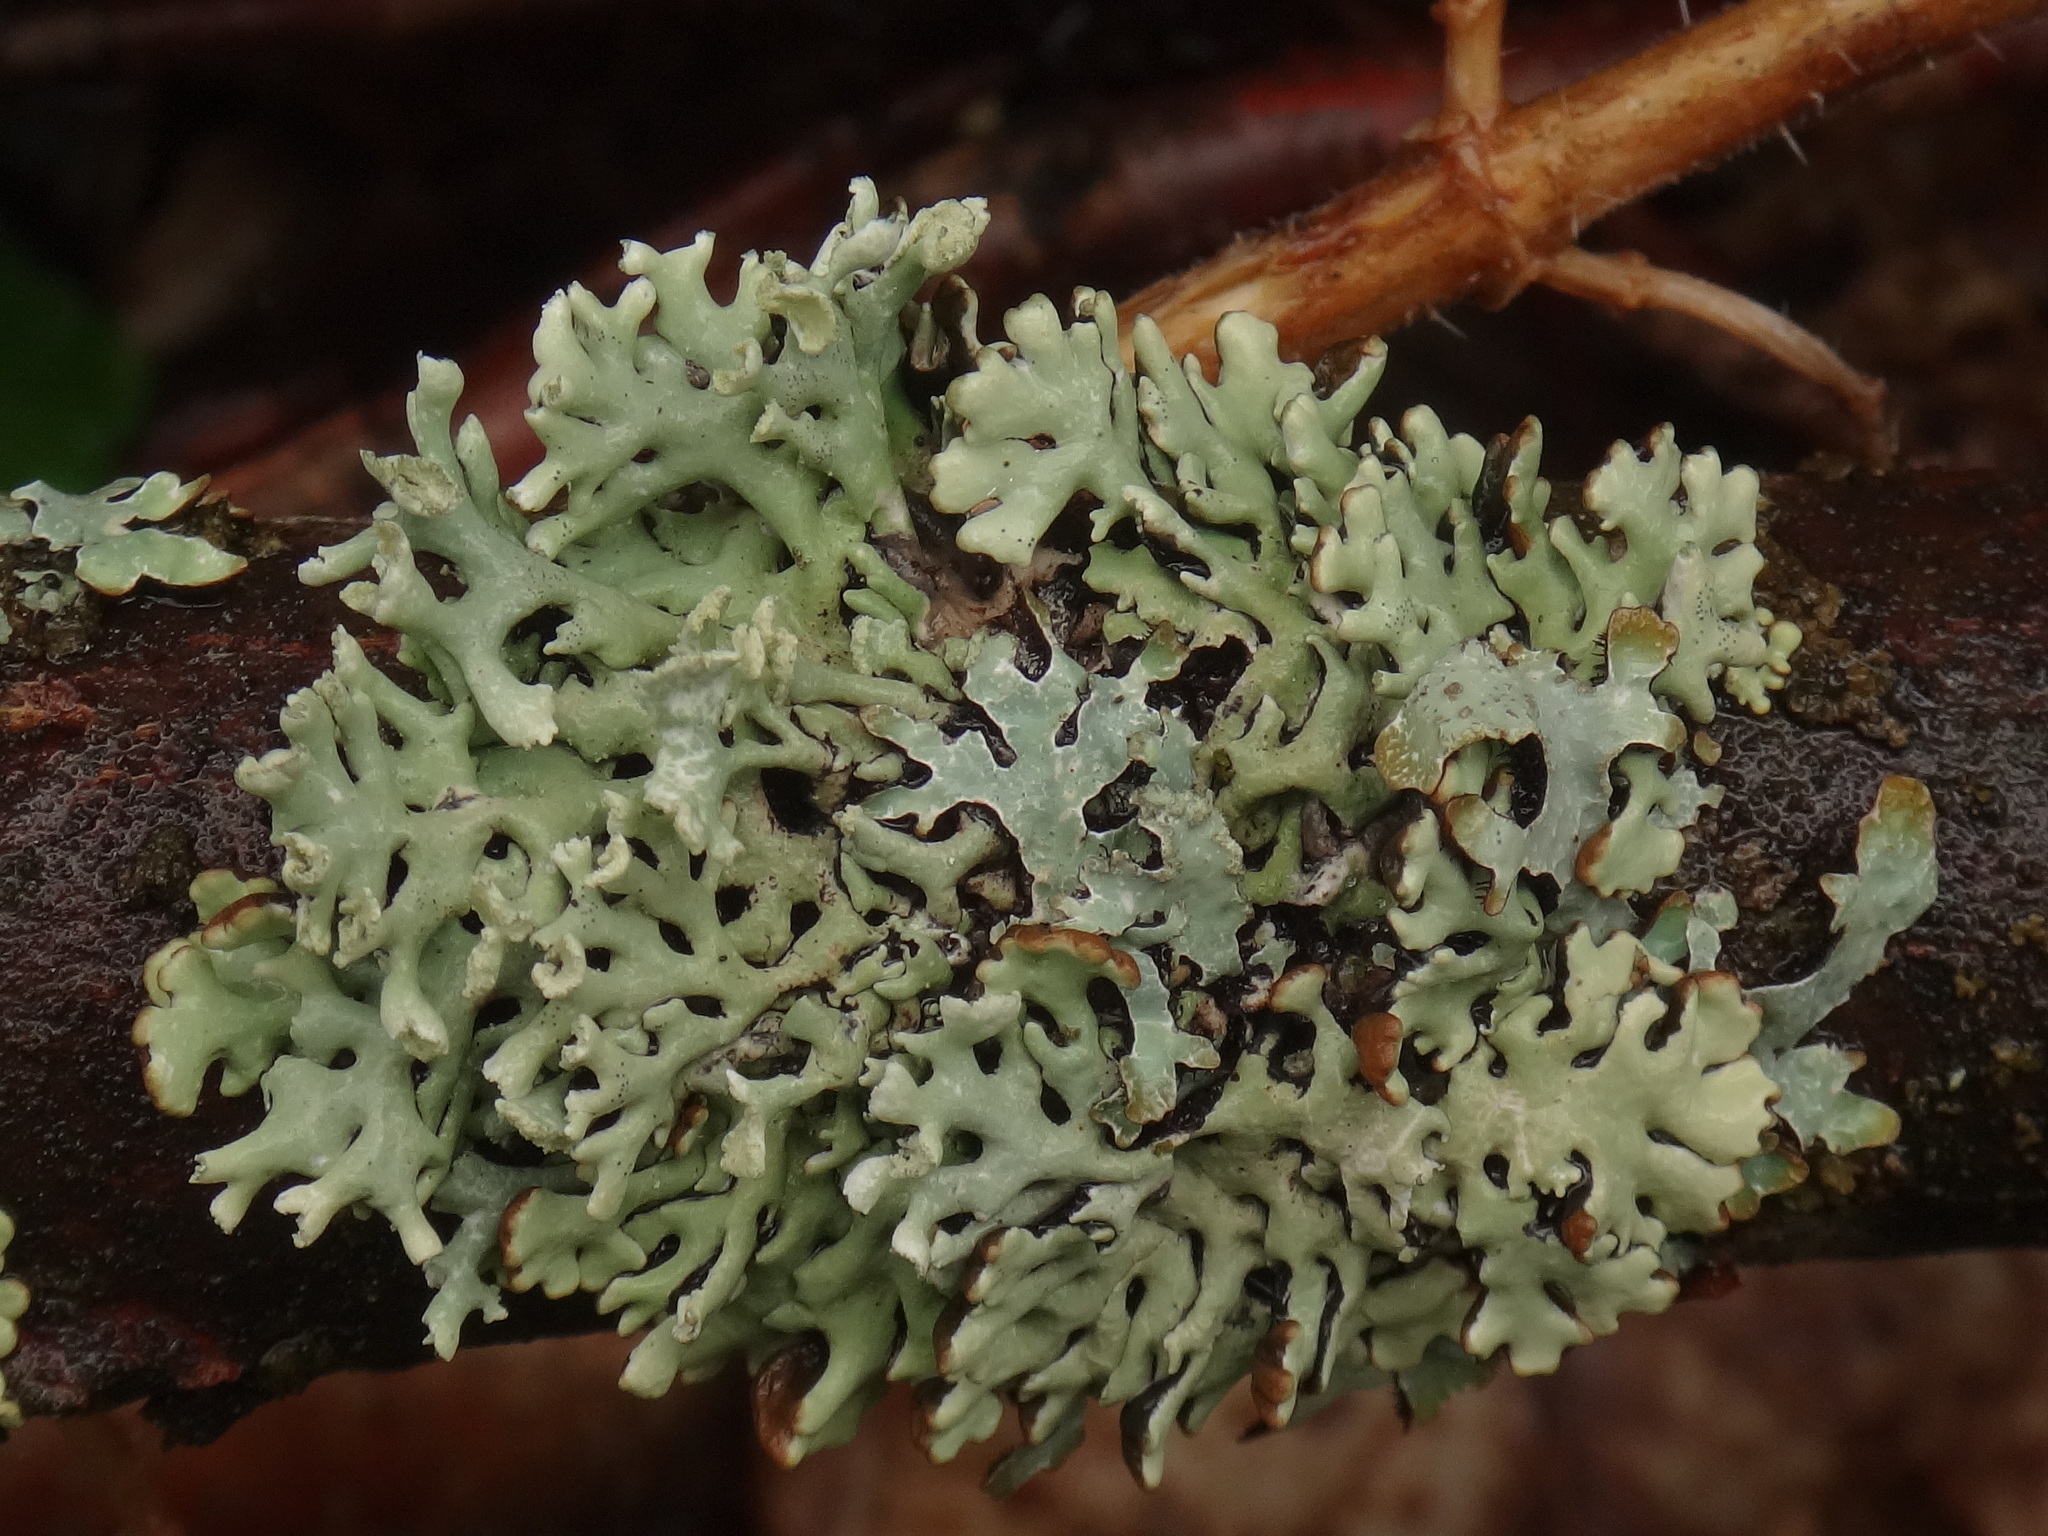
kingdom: Fungi
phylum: Ascomycota
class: Lecanoromycetes
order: Lecanorales
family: Parmeliaceae
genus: Hypogymnia
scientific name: Hypogymnia physodes
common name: Dark crottle
